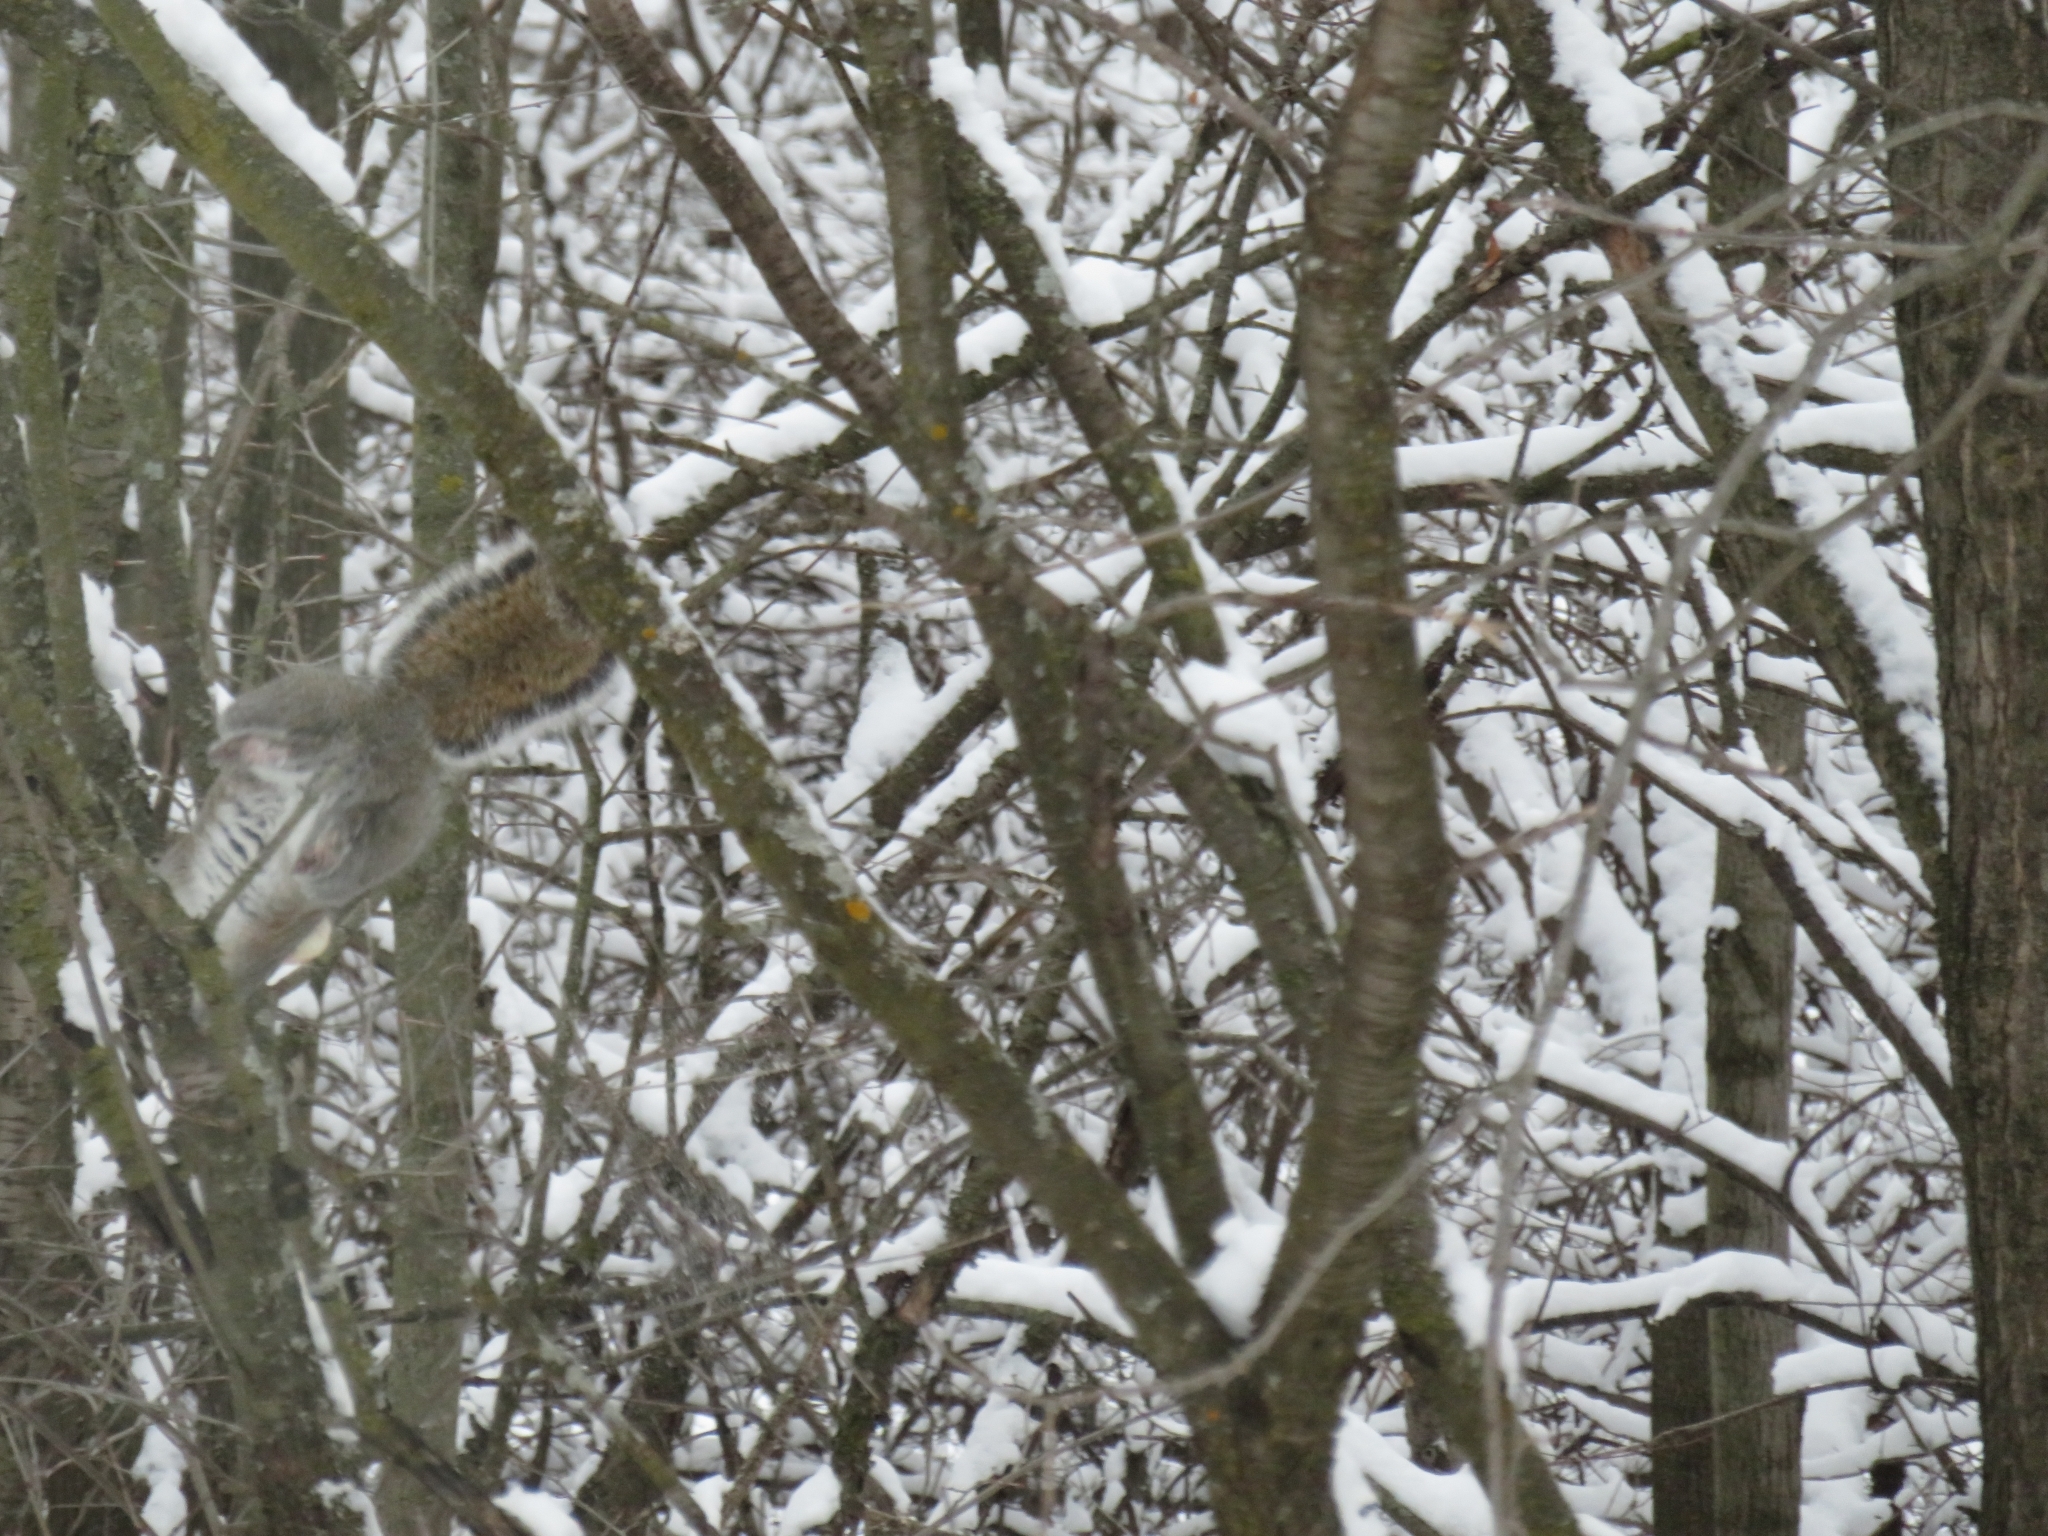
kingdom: Animalia
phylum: Chordata
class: Mammalia
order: Rodentia
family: Sciuridae
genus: Sciurus
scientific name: Sciurus carolinensis
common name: Eastern gray squirrel
